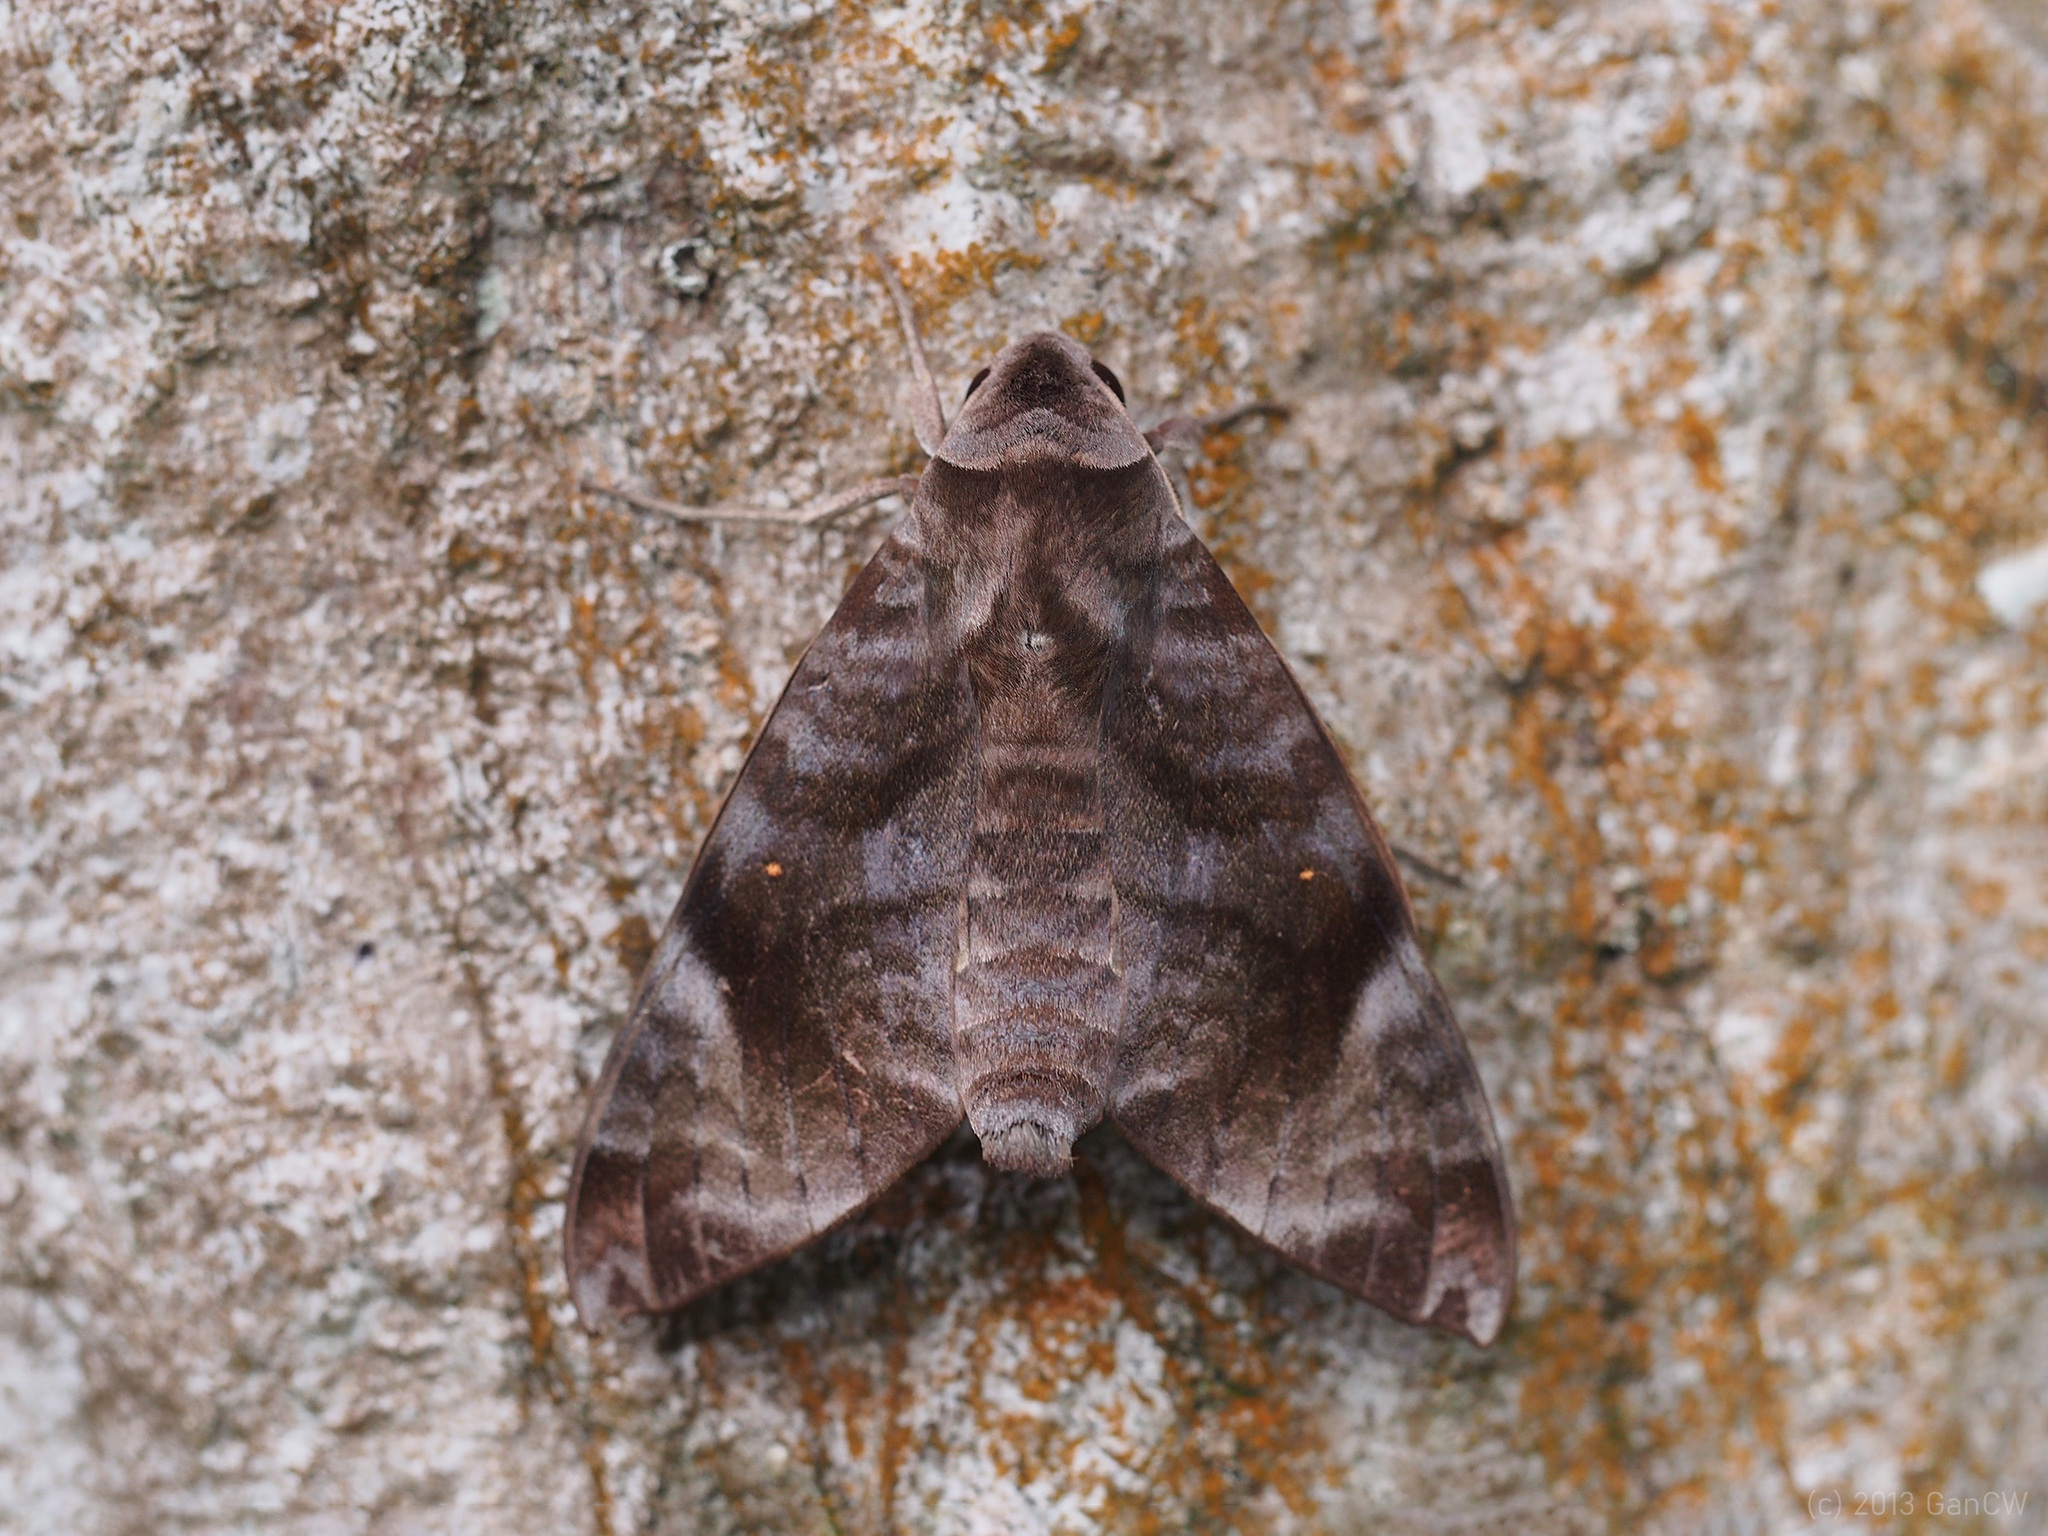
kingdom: Animalia
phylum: Arthropoda
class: Insecta
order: Lepidoptera
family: Sphingidae
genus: Acosmeryx
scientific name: Acosmeryx pseudonaga
